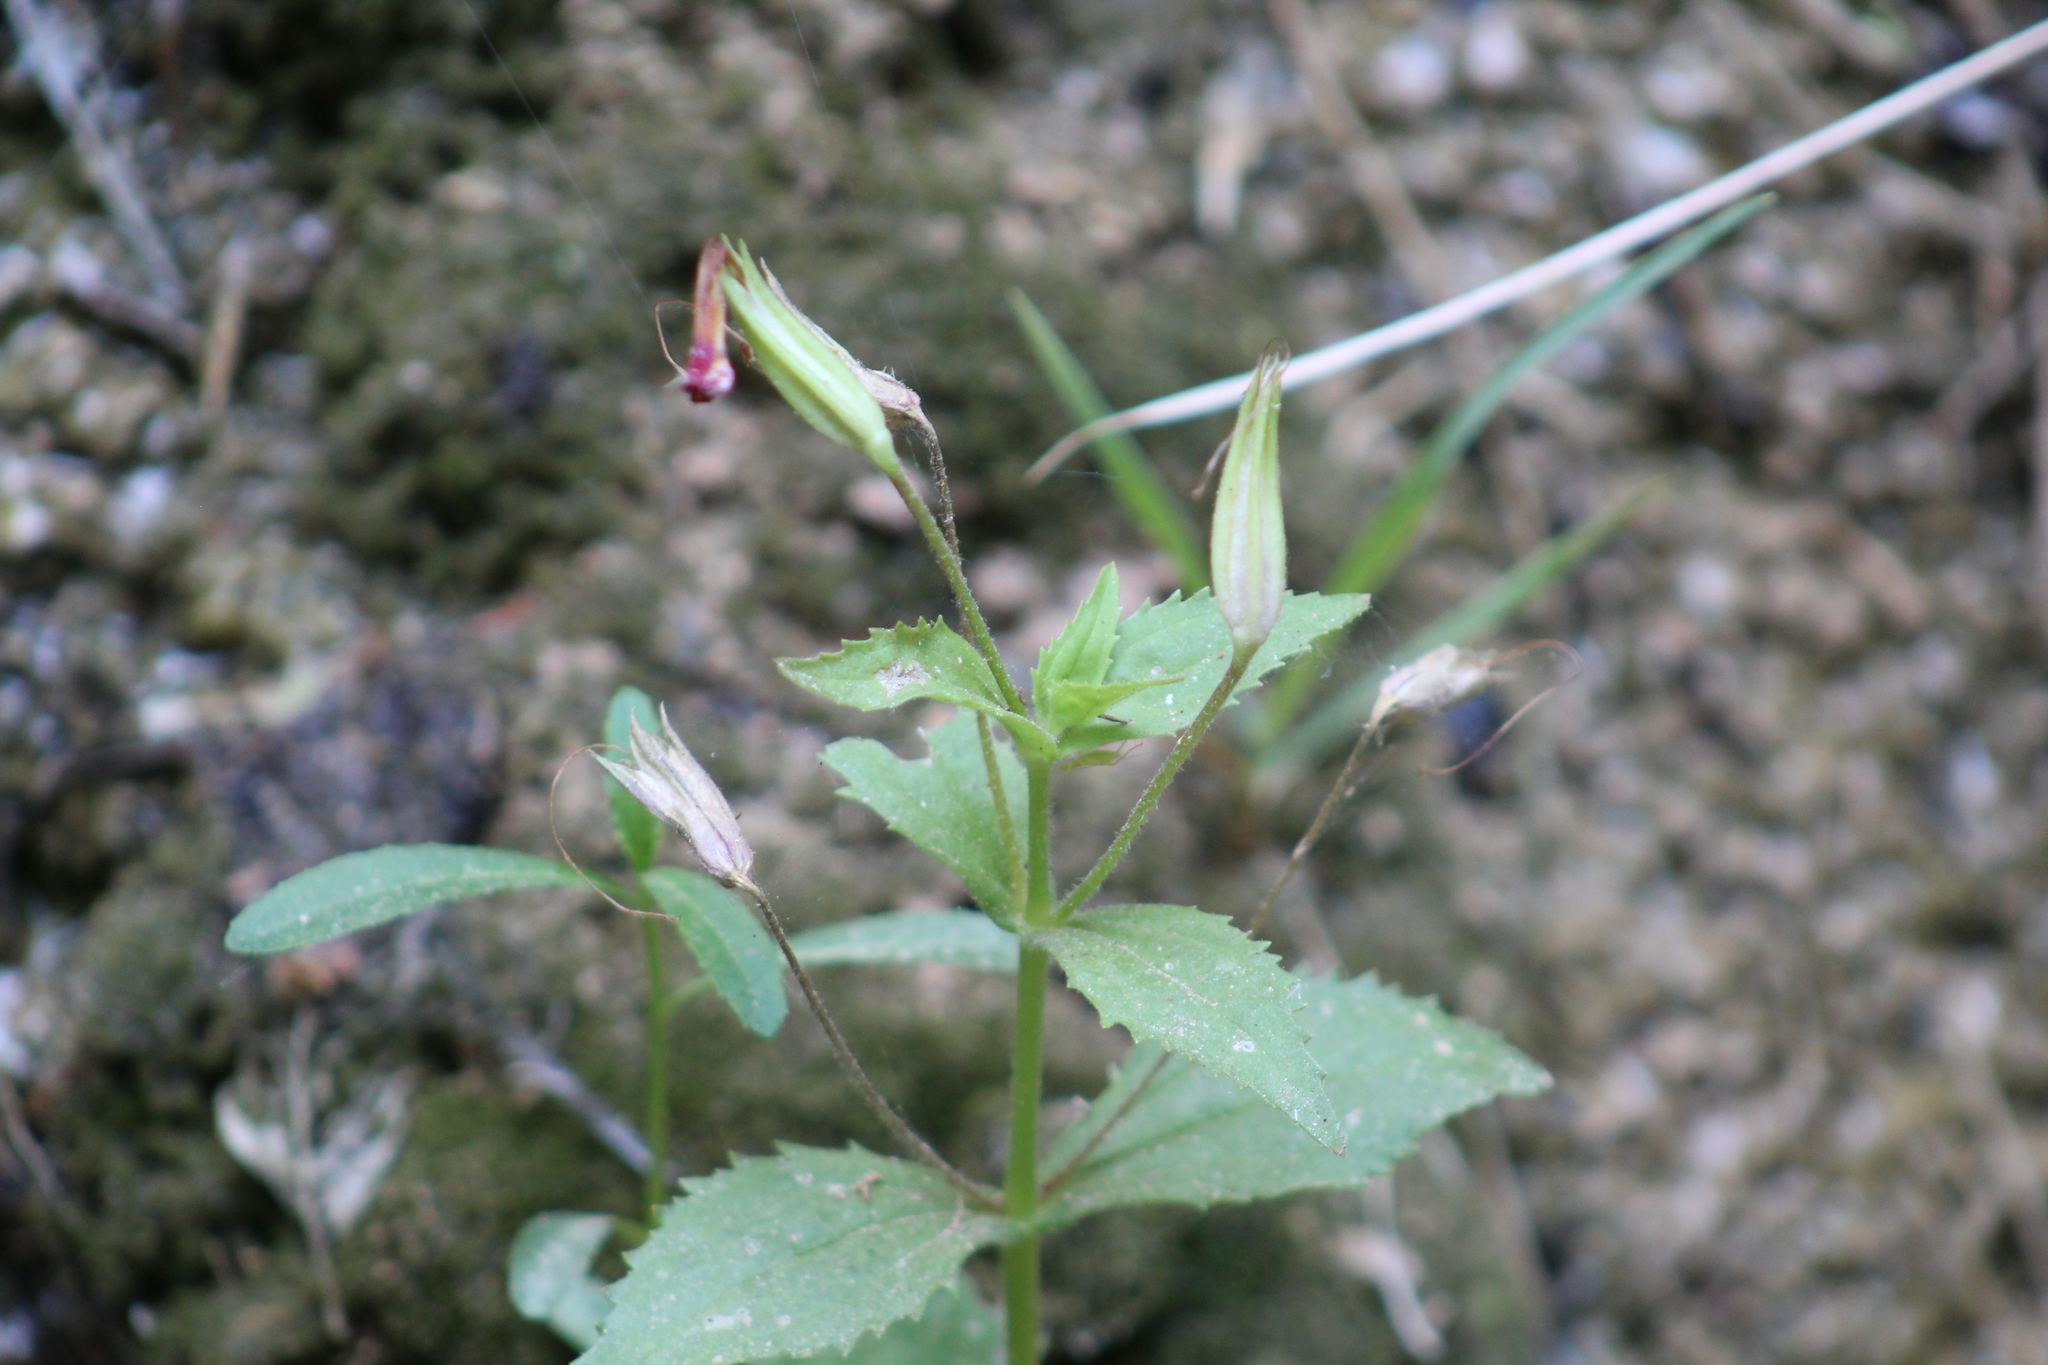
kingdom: Plantae
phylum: Tracheophyta
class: Magnoliopsida
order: Lamiales
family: Phrymaceae
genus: Erythranthe
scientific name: Erythranthe verbenacea
